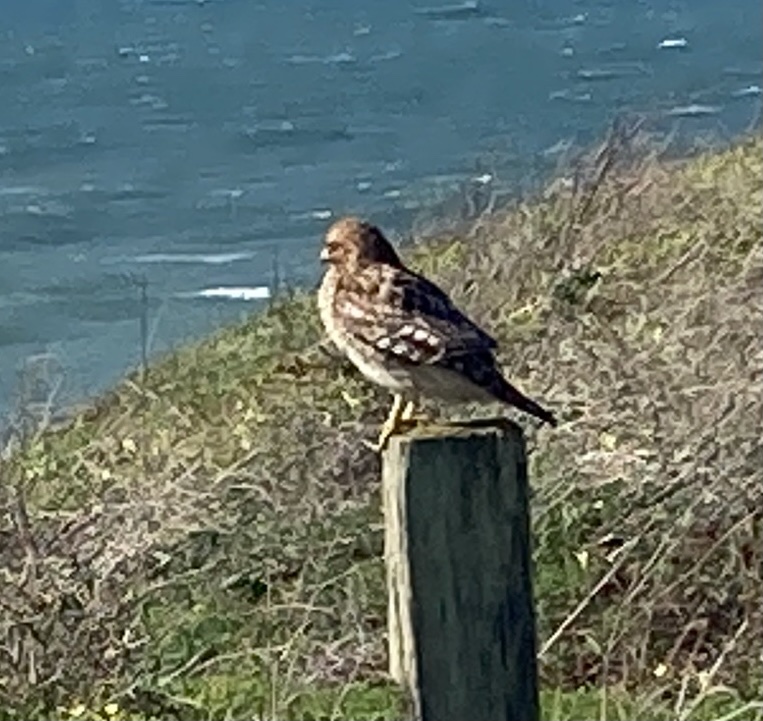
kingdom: Animalia
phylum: Chordata
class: Aves
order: Accipitriformes
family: Accipitridae
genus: Buteo
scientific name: Buteo lineatus
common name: Red-shouldered hawk
